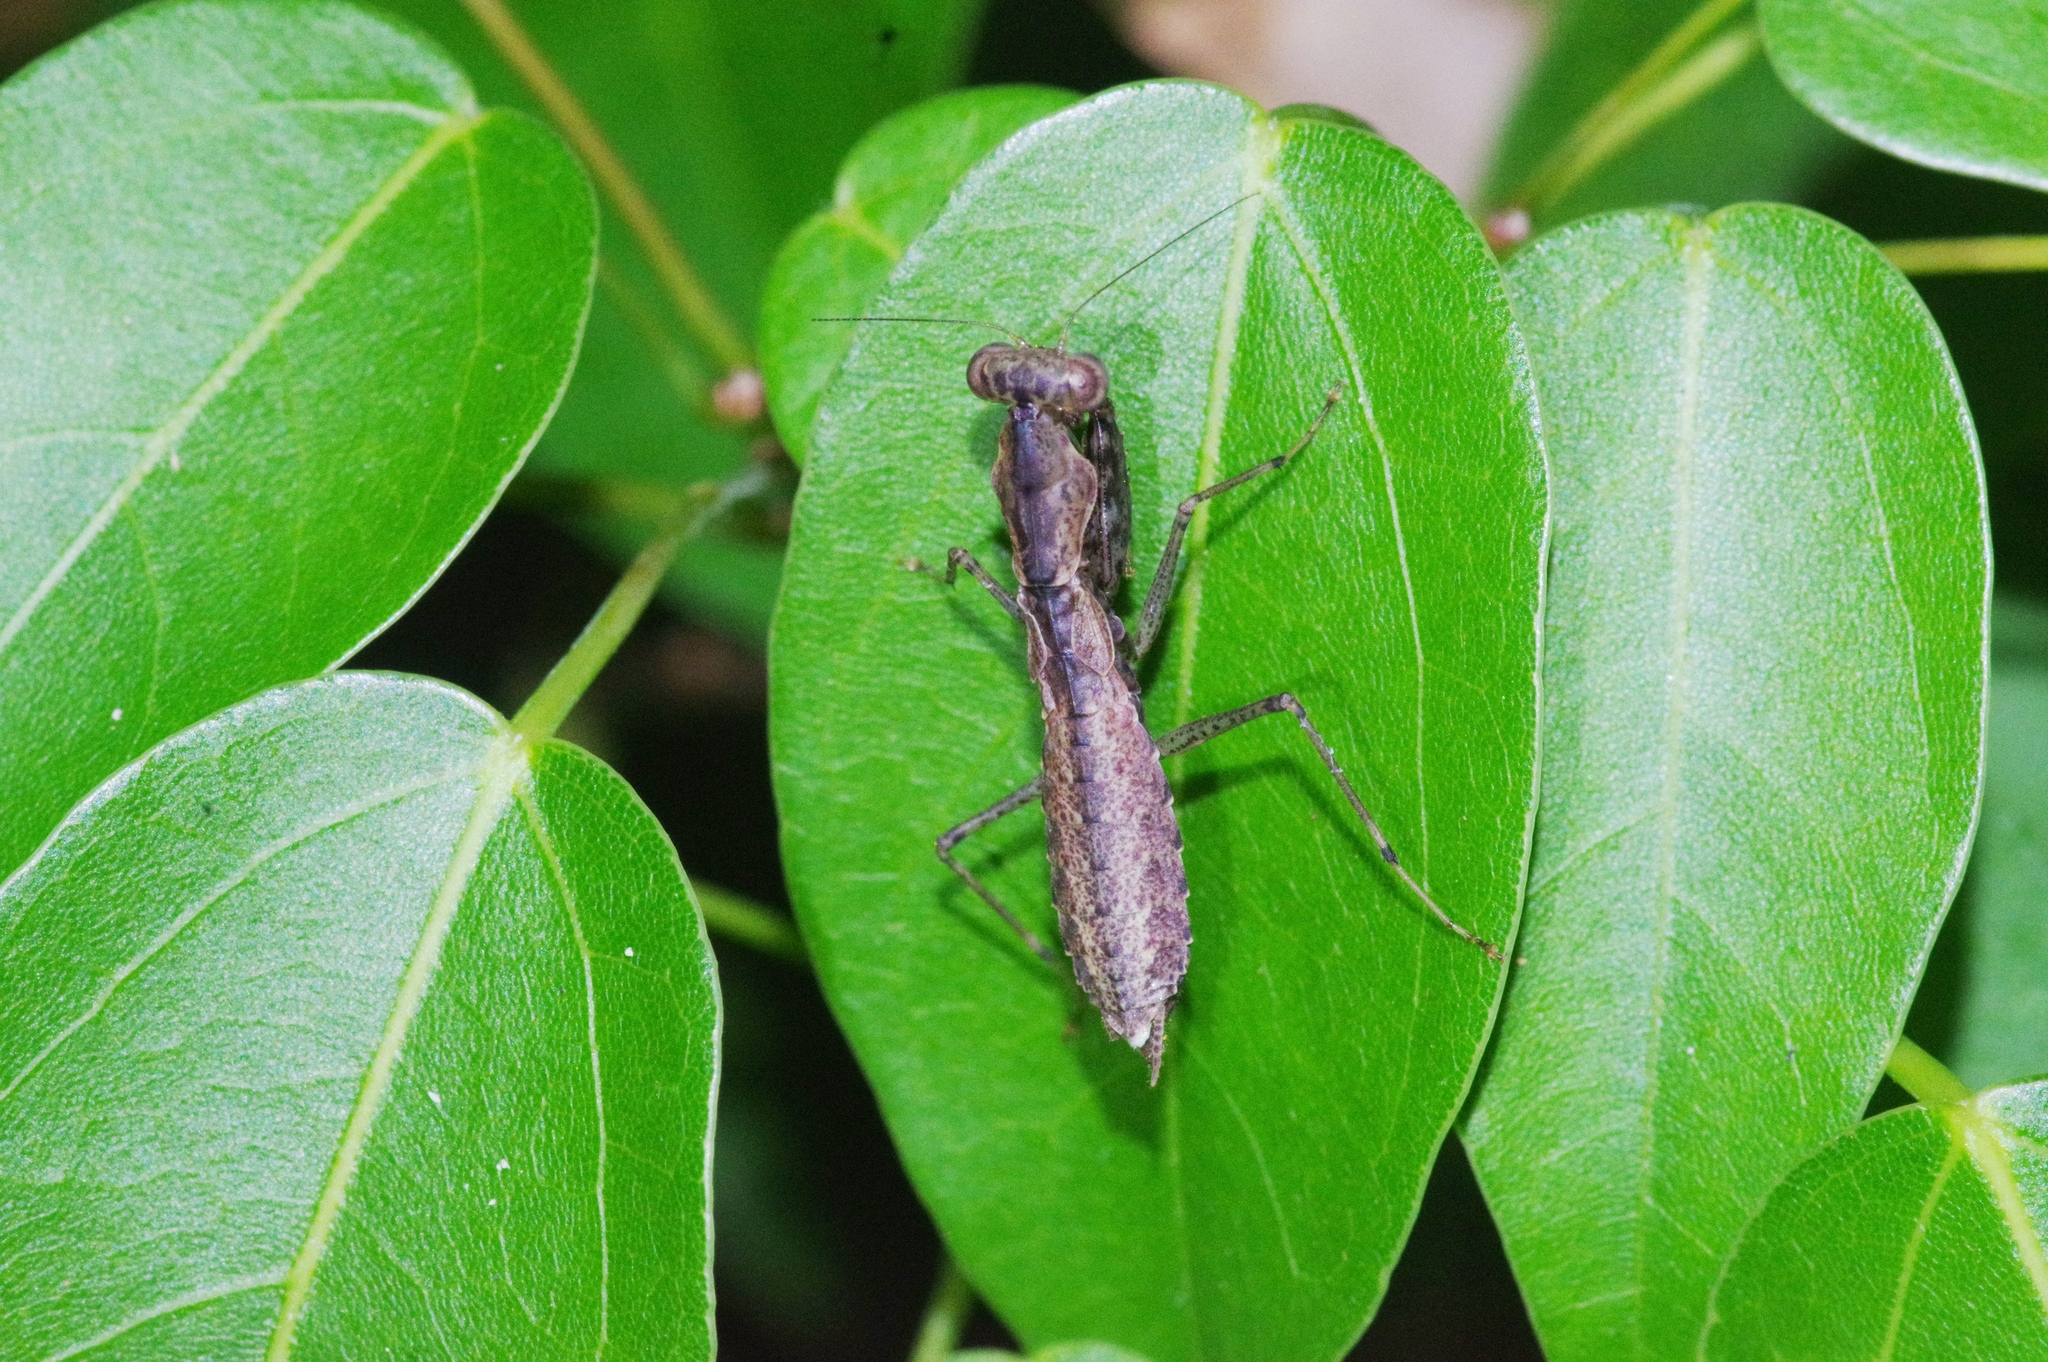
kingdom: Animalia
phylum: Arthropoda
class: Insecta
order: Mantodea
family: Gonypetidae
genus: Amantis
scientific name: Amantis nawai
